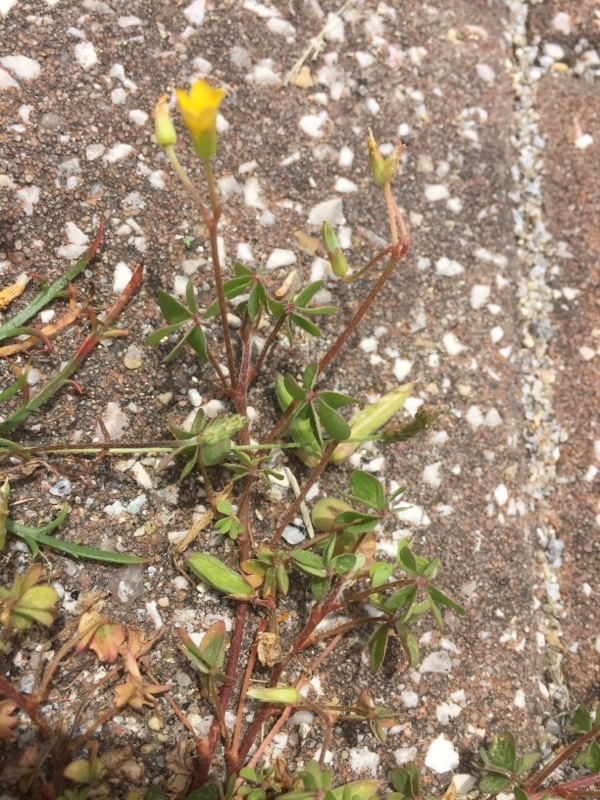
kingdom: Plantae
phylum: Tracheophyta
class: Magnoliopsida
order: Oxalidales
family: Oxalidaceae
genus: Oxalis
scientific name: Oxalis corniculata
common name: Procumbent yellow-sorrel
